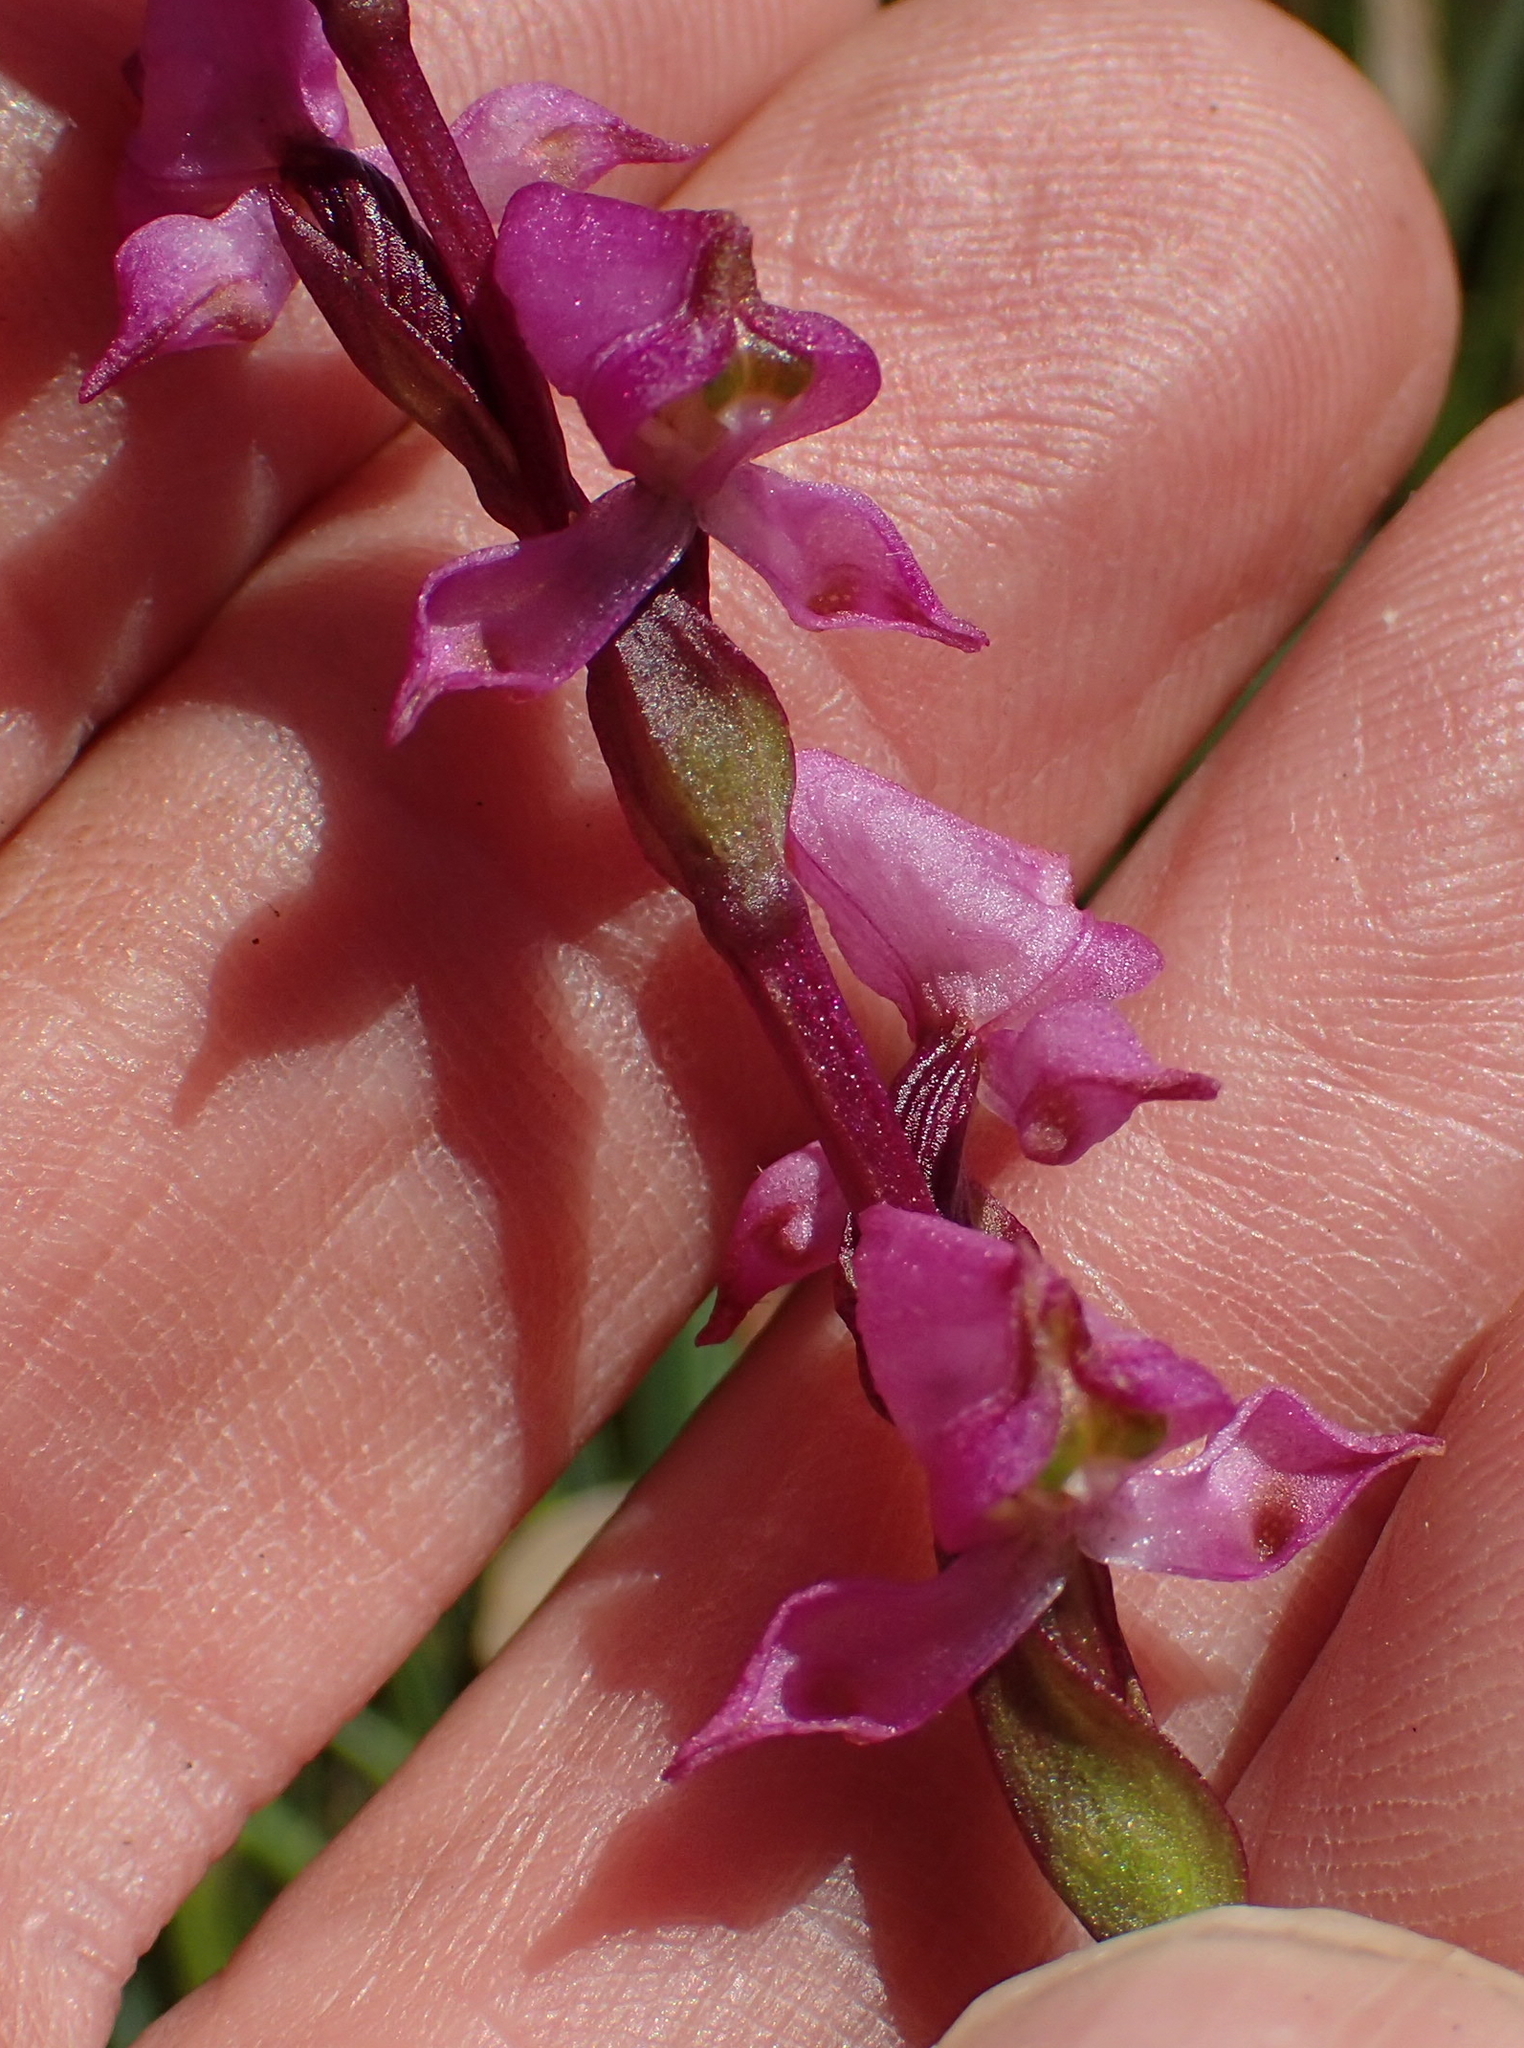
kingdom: Plantae
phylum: Tracheophyta
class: Liliopsida
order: Asparagales
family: Orchidaceae
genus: Disperis
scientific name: Disperis tysonii
